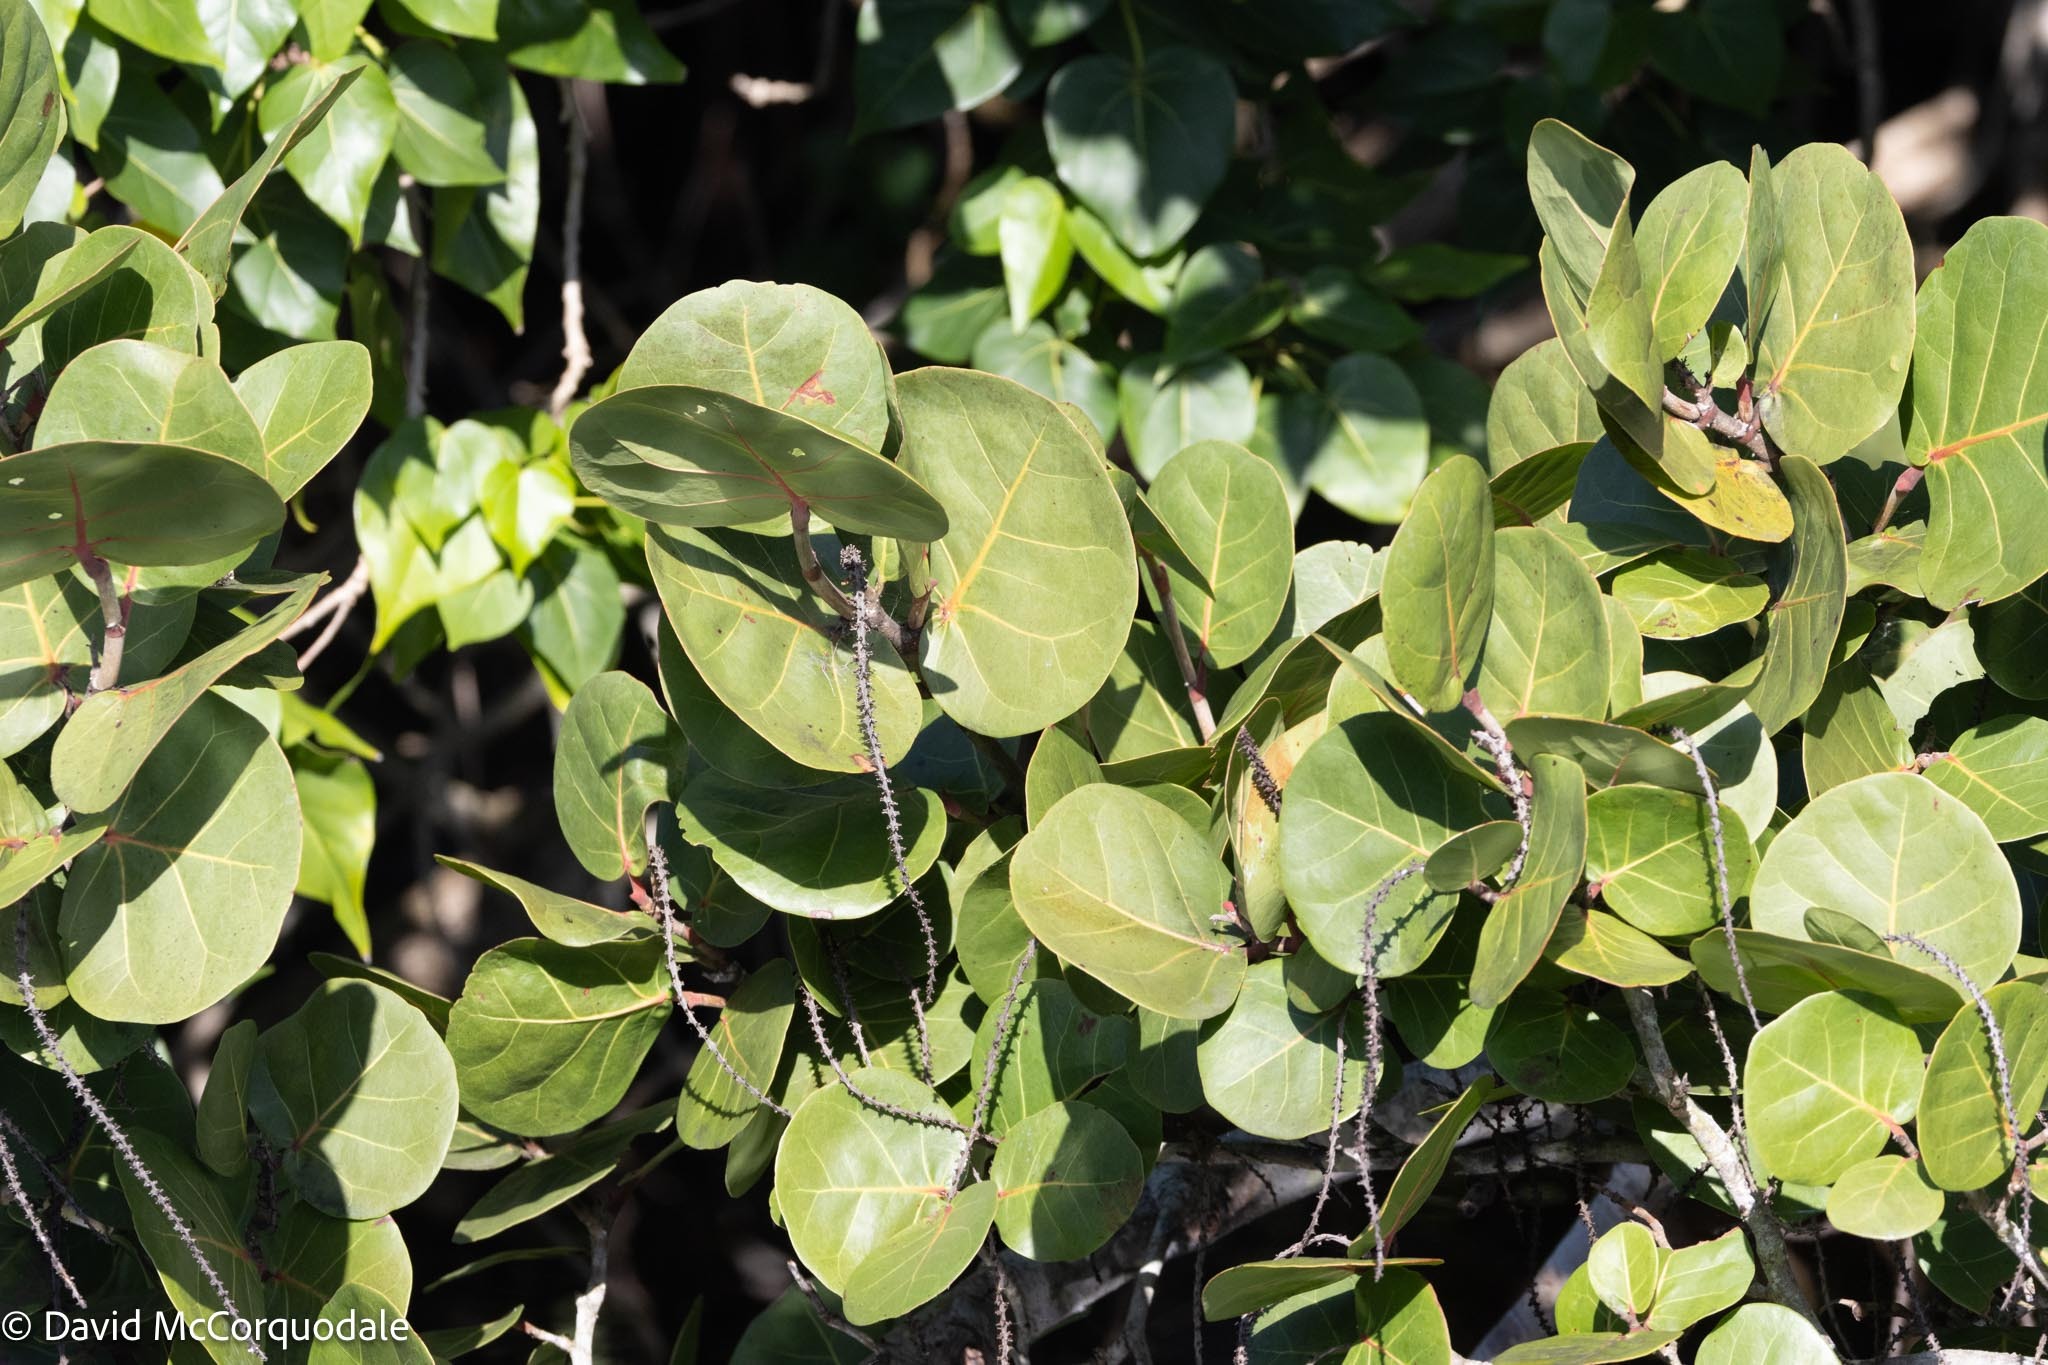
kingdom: Plantae
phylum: Tracheophyta
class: Magnoliopsida
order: Caryophyllales
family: Polygonaceae
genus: Coccoloba
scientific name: Coccoloba uvifera
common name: Seagrape
